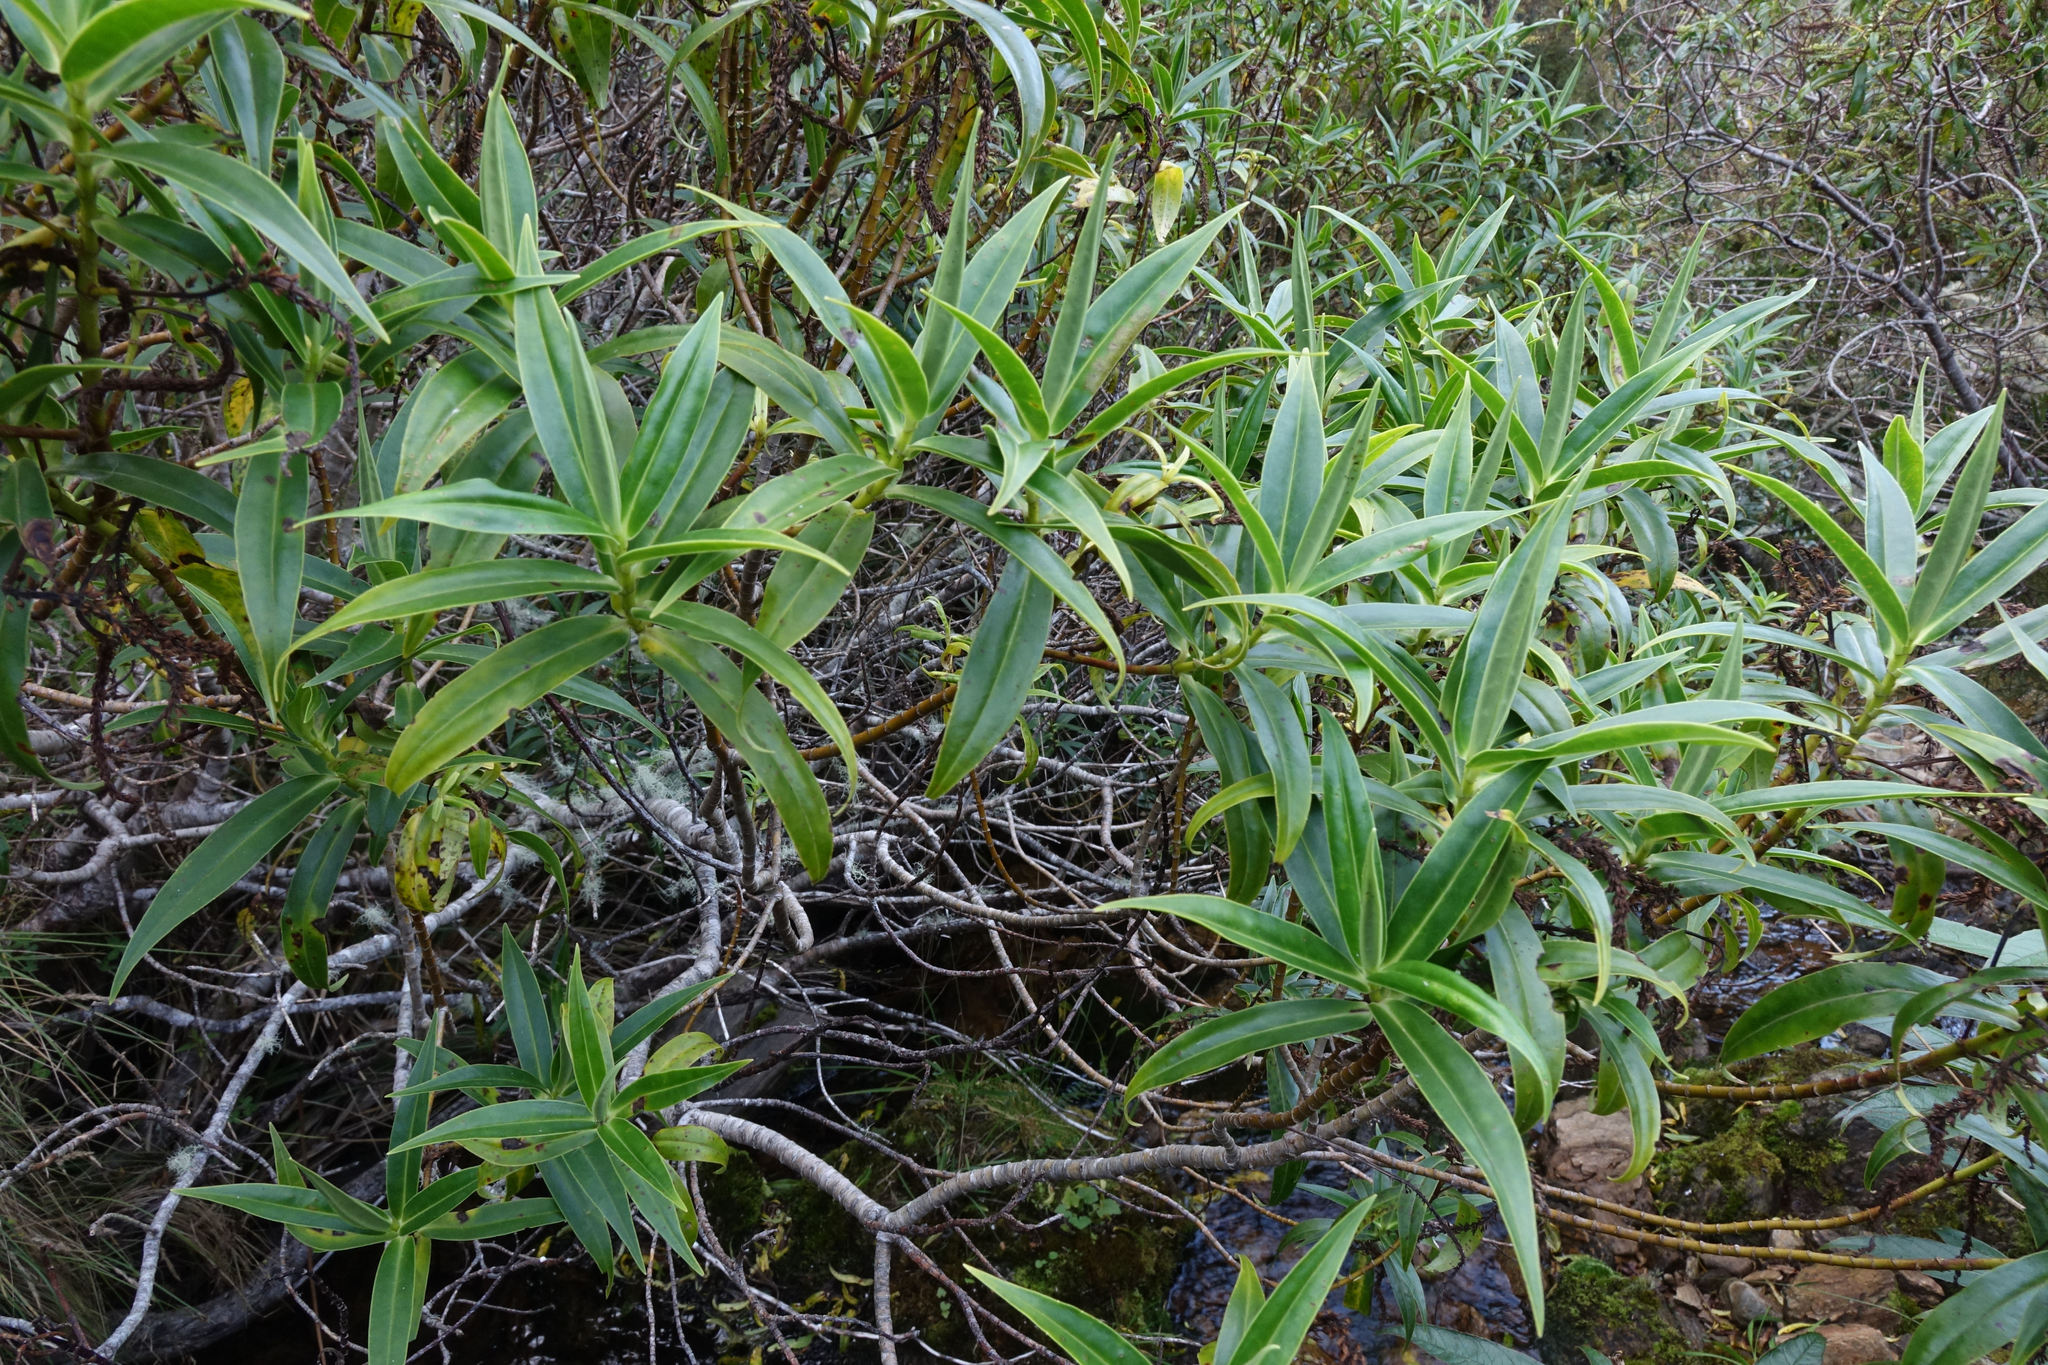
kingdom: Plantae
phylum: Tracheophyta
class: Magnoliopsida
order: Lamiales
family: Plantaginaceae
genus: Veronica
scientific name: Veronica salicifolia
